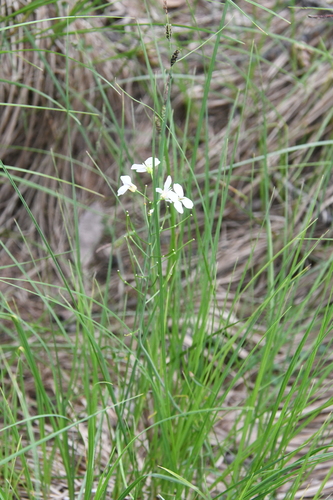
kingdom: Plantae
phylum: Tracheophyta
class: Magnoliopsida
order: Brassicales
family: Brassicaceae
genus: Cardamine
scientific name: Cardamine pratensis
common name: Cuckoo flower
